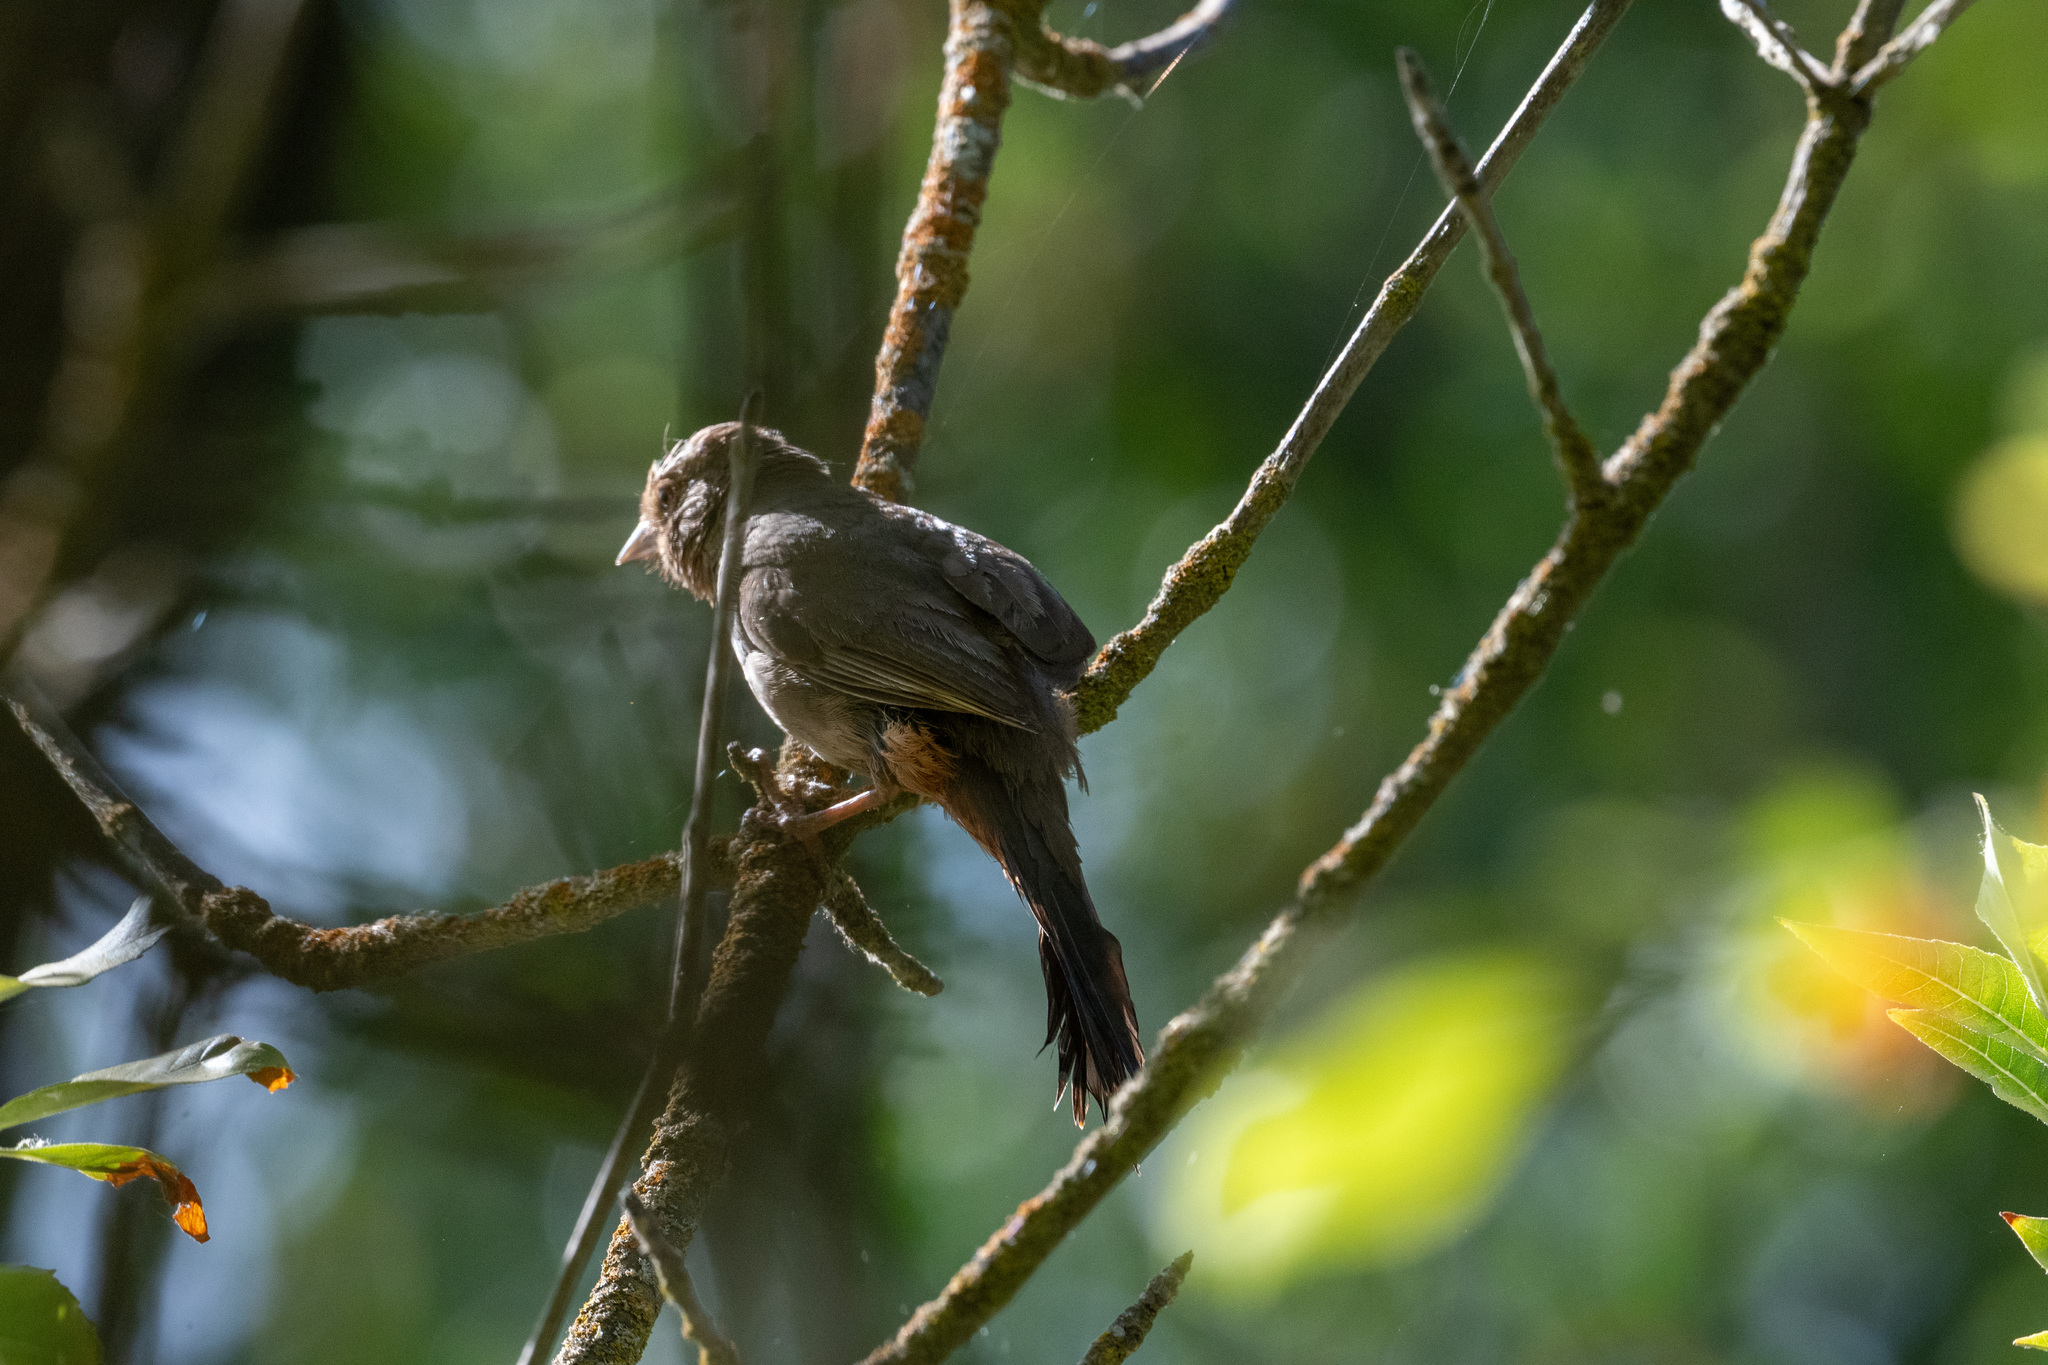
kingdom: Animalia
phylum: Chordata
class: Aves
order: Passeriformes
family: Passerellidae
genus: Melozone
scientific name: Melozone crissalis
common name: California towhee
